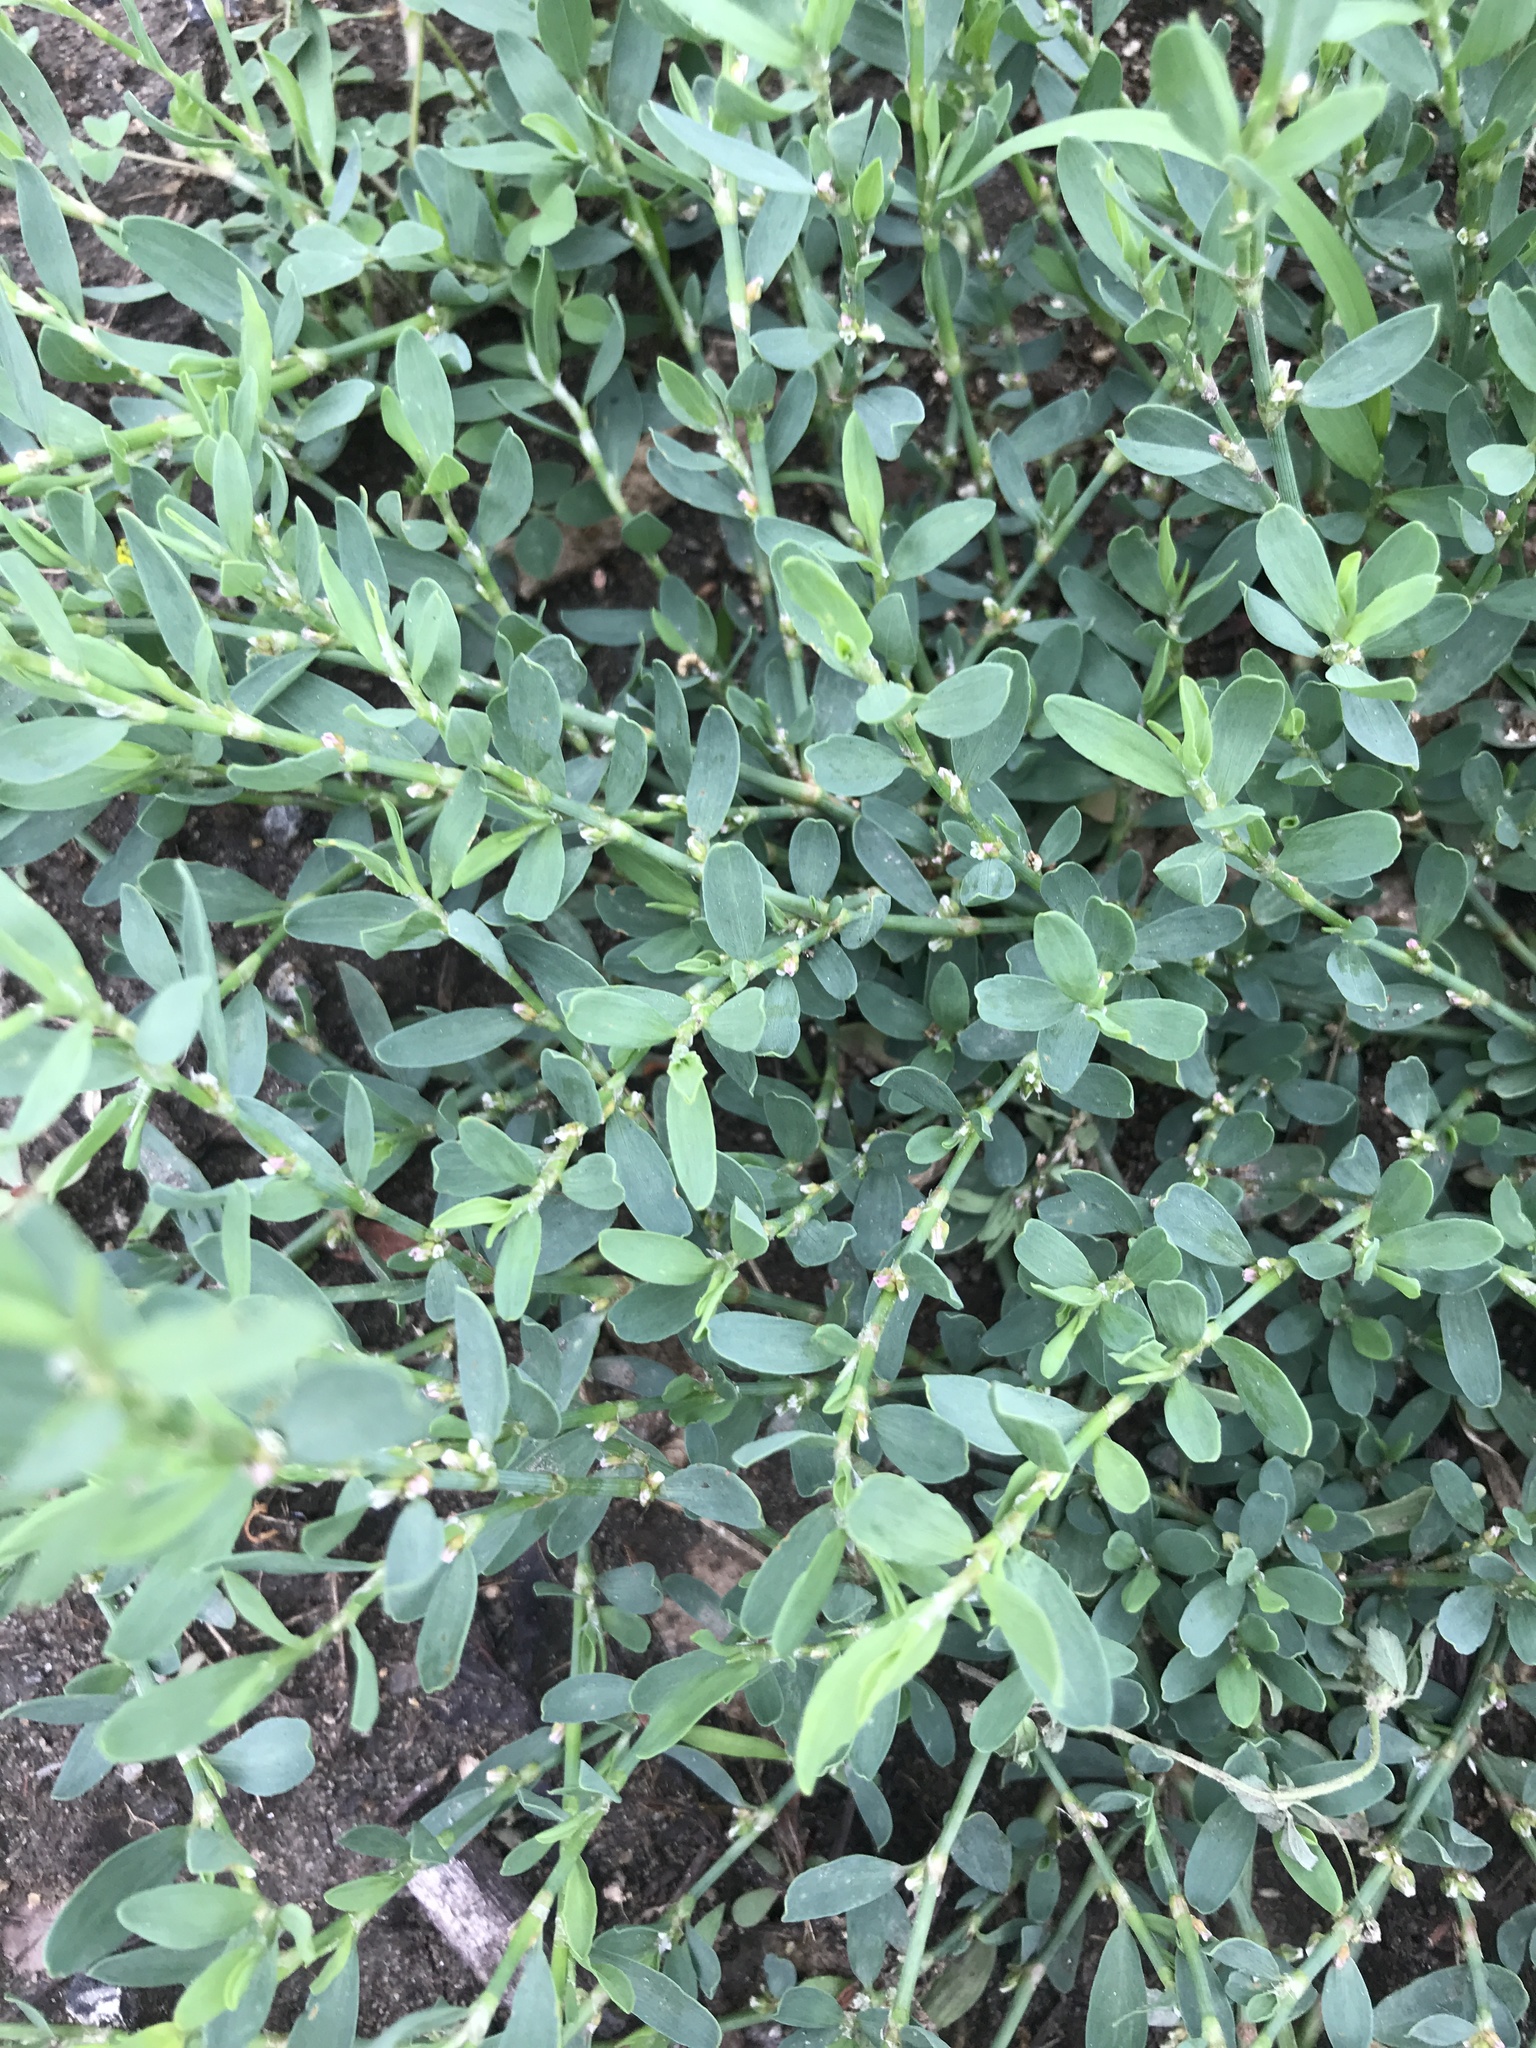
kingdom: Plantae
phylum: Tracheophyta
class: Magnoliopsida
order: Caryophyllales
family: Polygonaceae
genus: Polygonum
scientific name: Polygonum aviculare
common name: Prostrate knotweed
